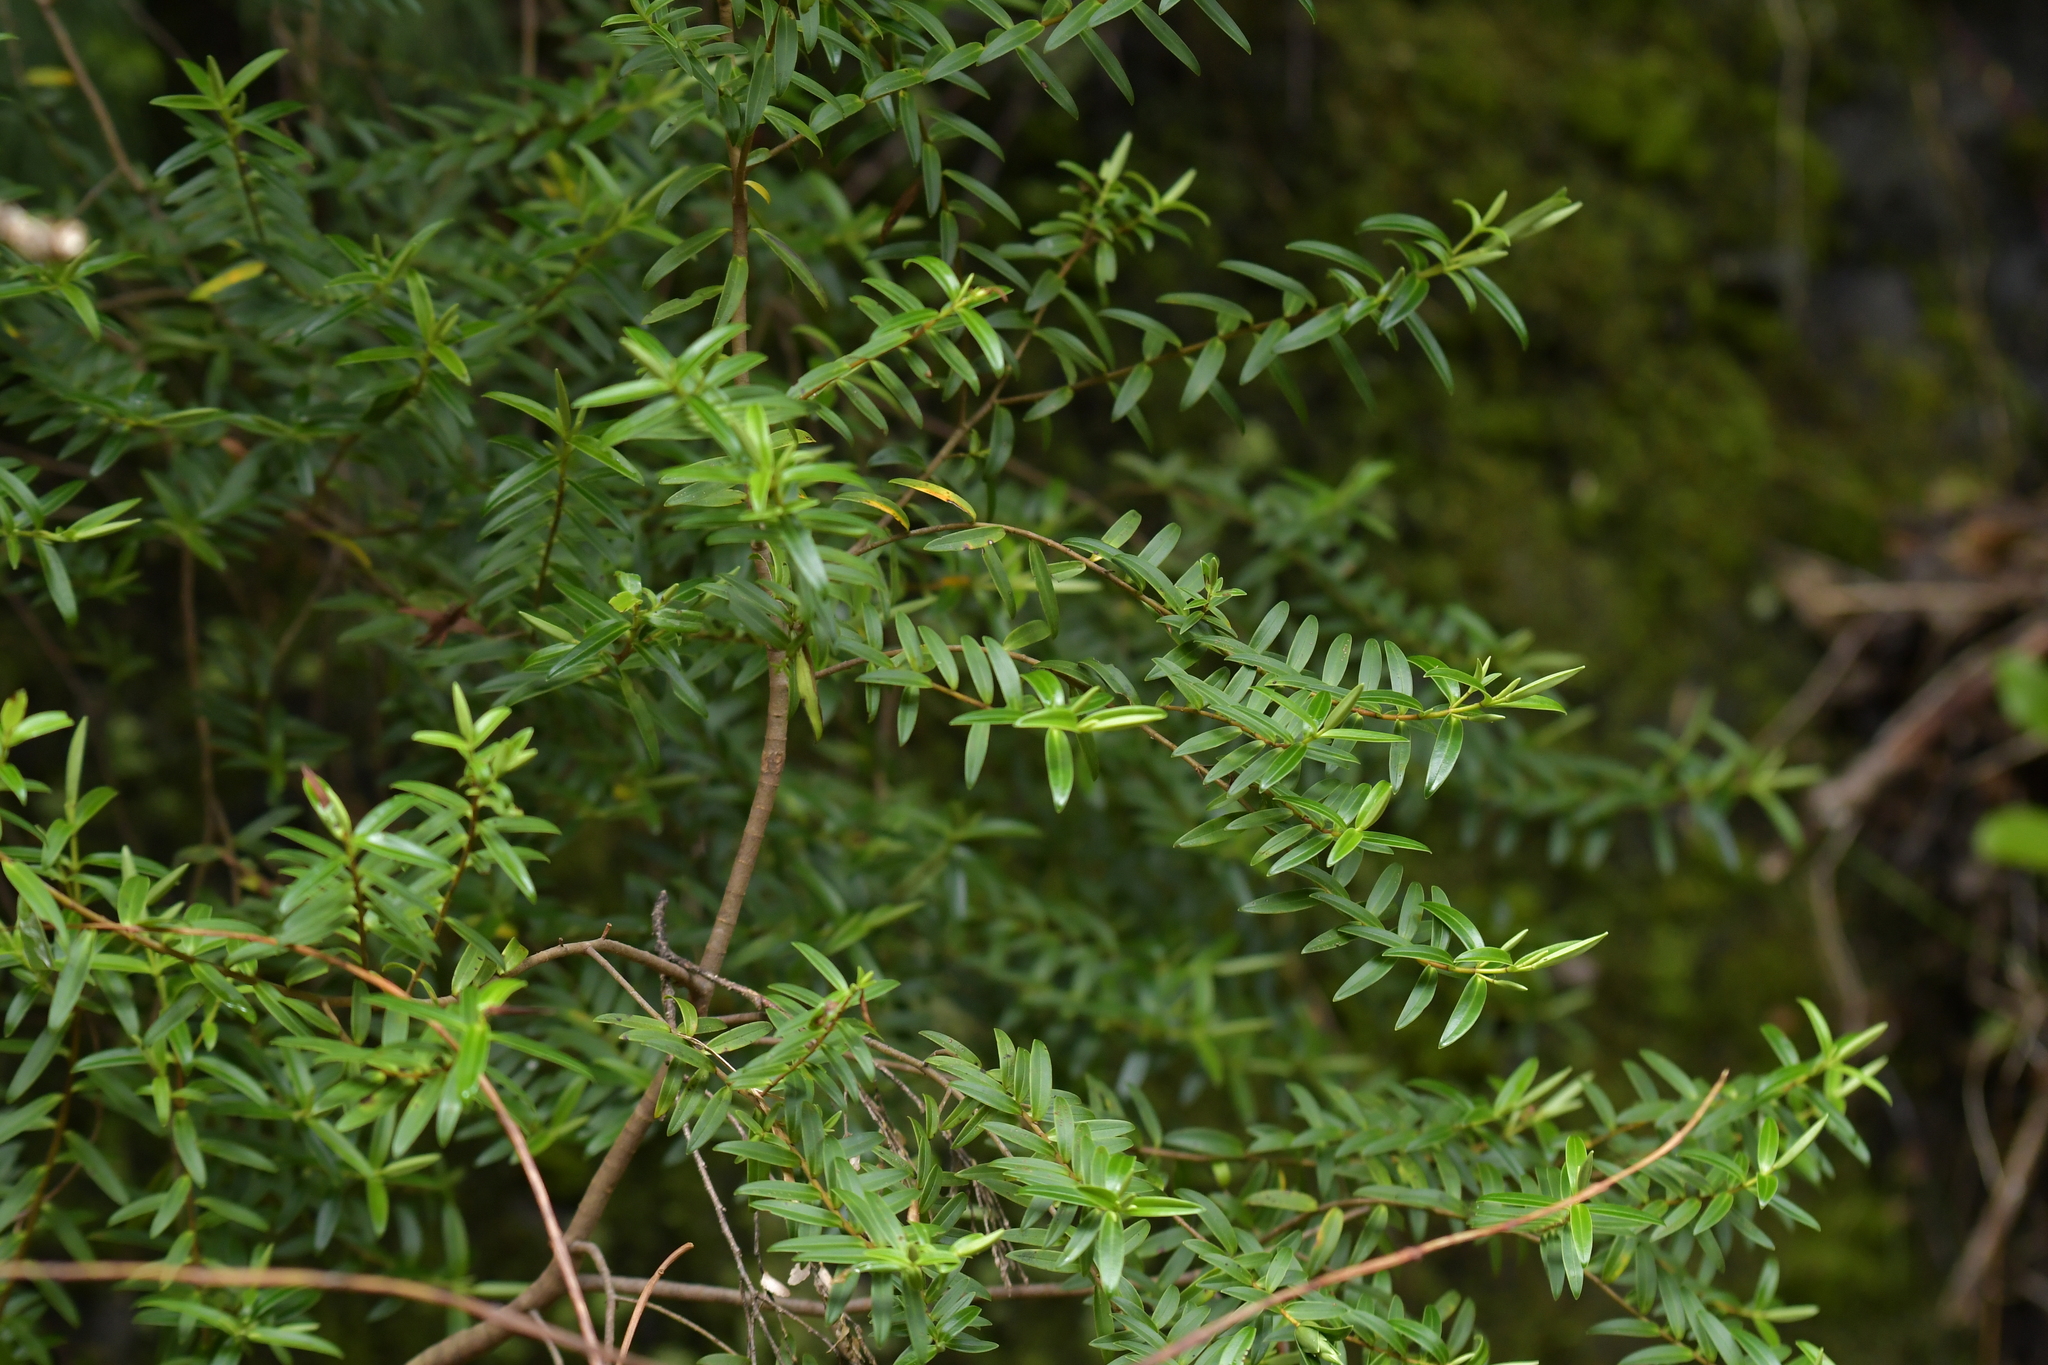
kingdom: Plantae
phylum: Tracheophyta
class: Magnoliopsida
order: Lamiales
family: Plantaginaceae
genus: Veronica
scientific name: Veronica leiophylla
